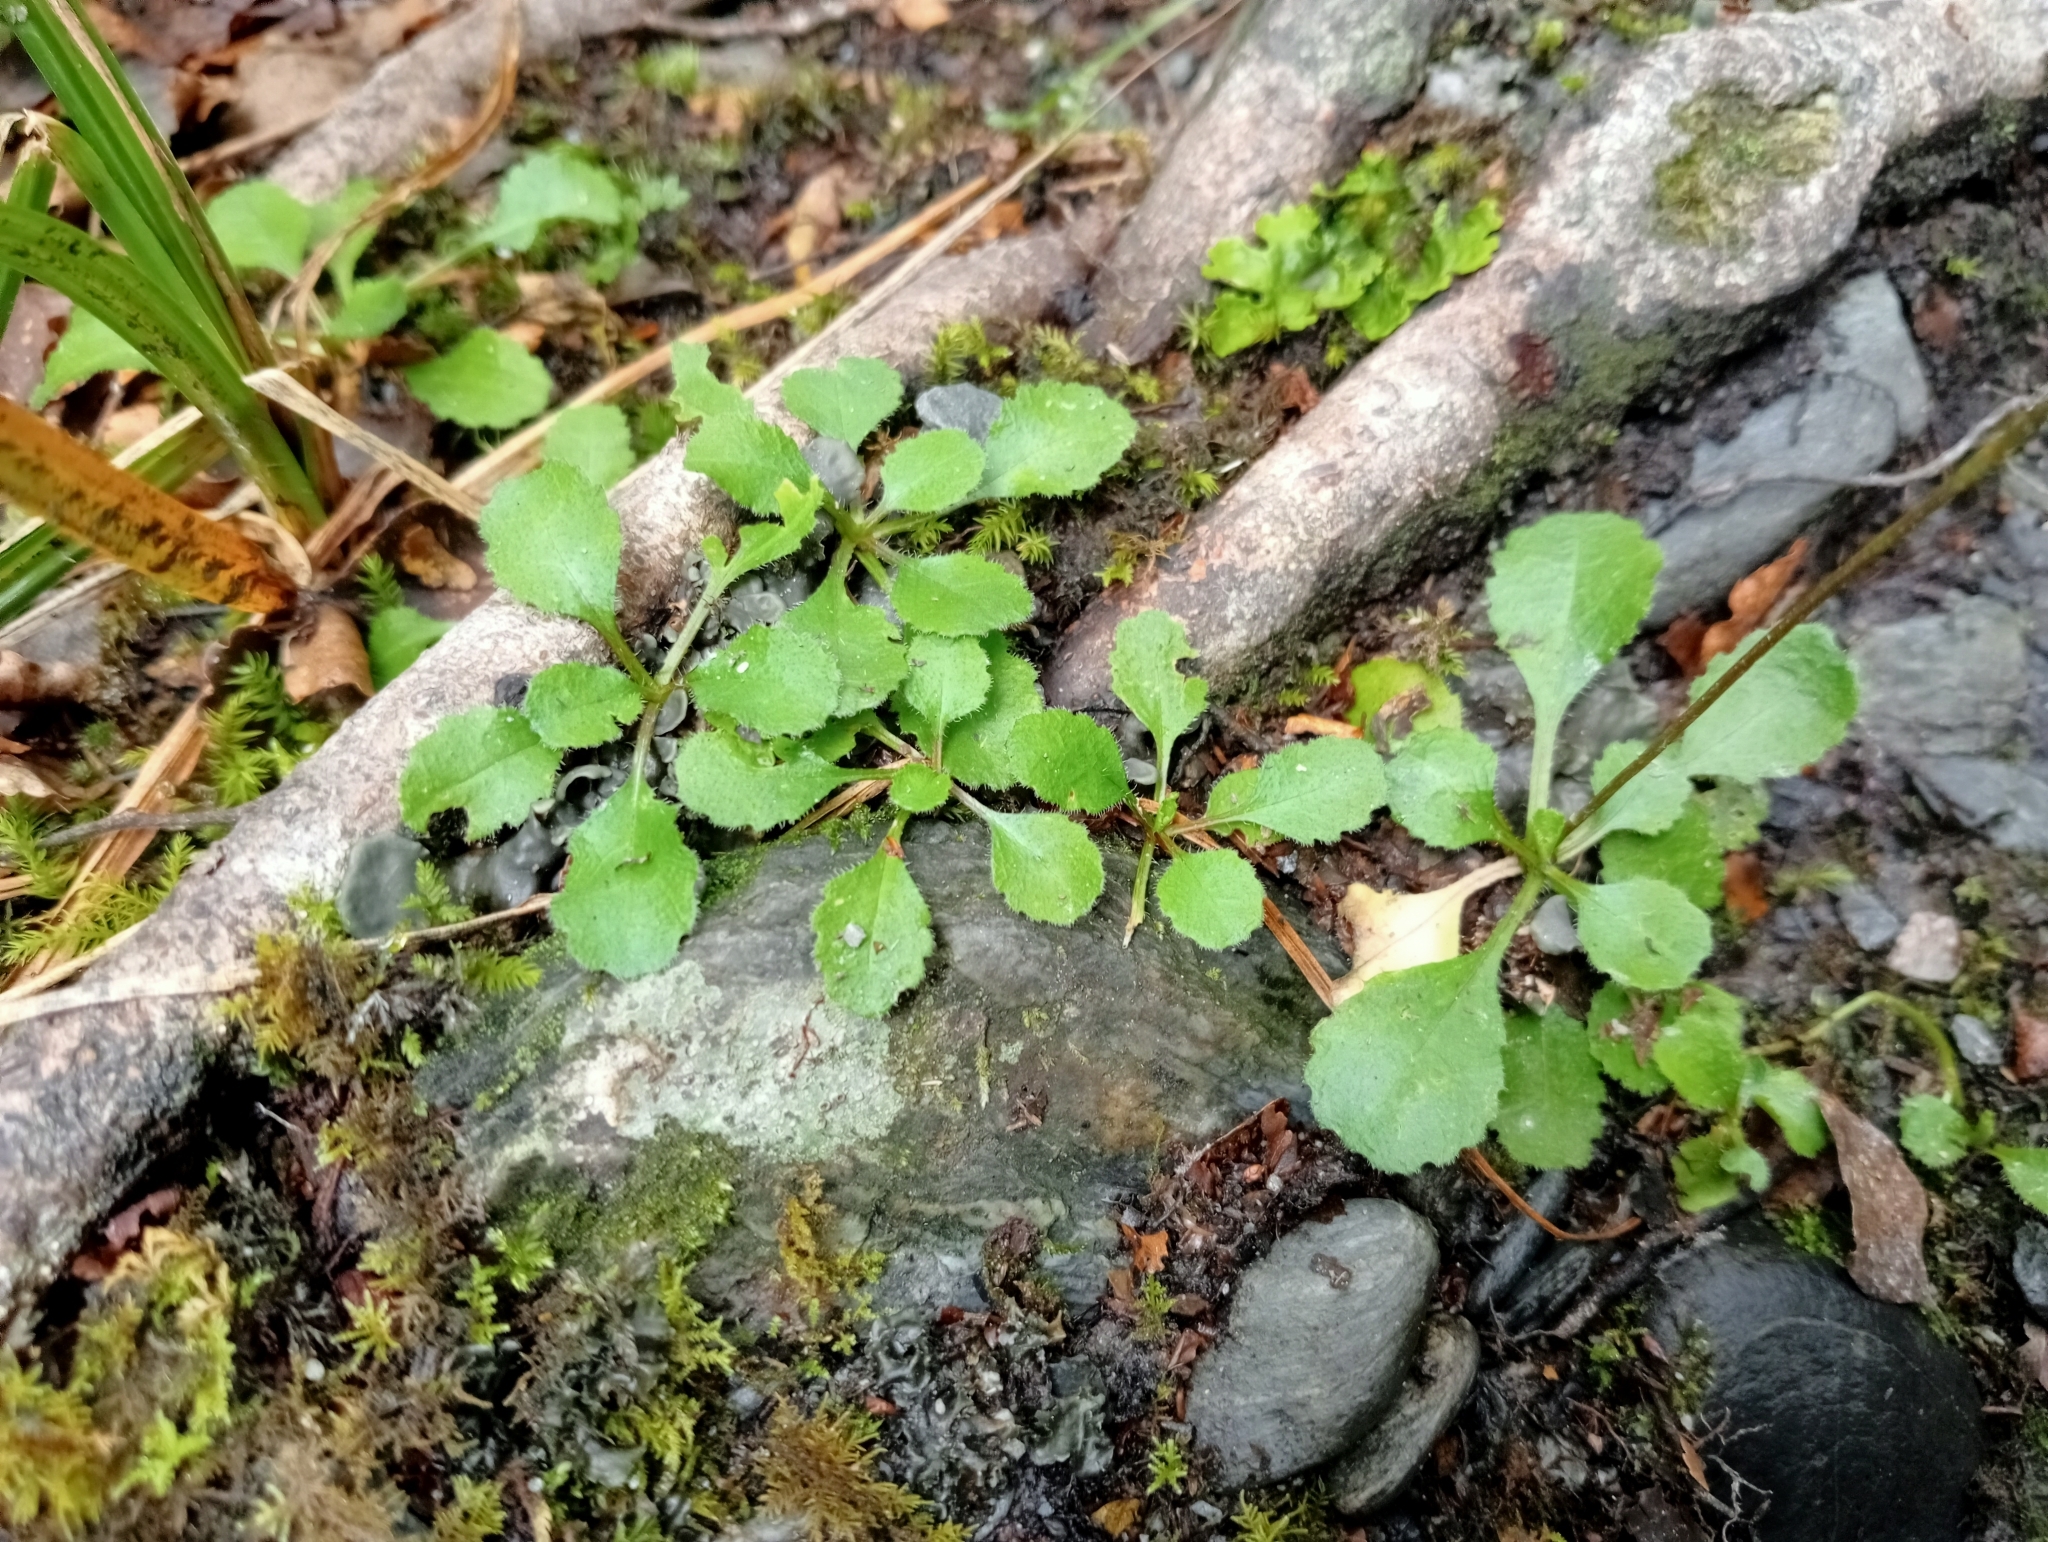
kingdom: Plantae
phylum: Tracheophyta
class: Magnoliopsida
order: Asterales
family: Asteraceae
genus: Lagenophora
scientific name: Lagenophora pumila
